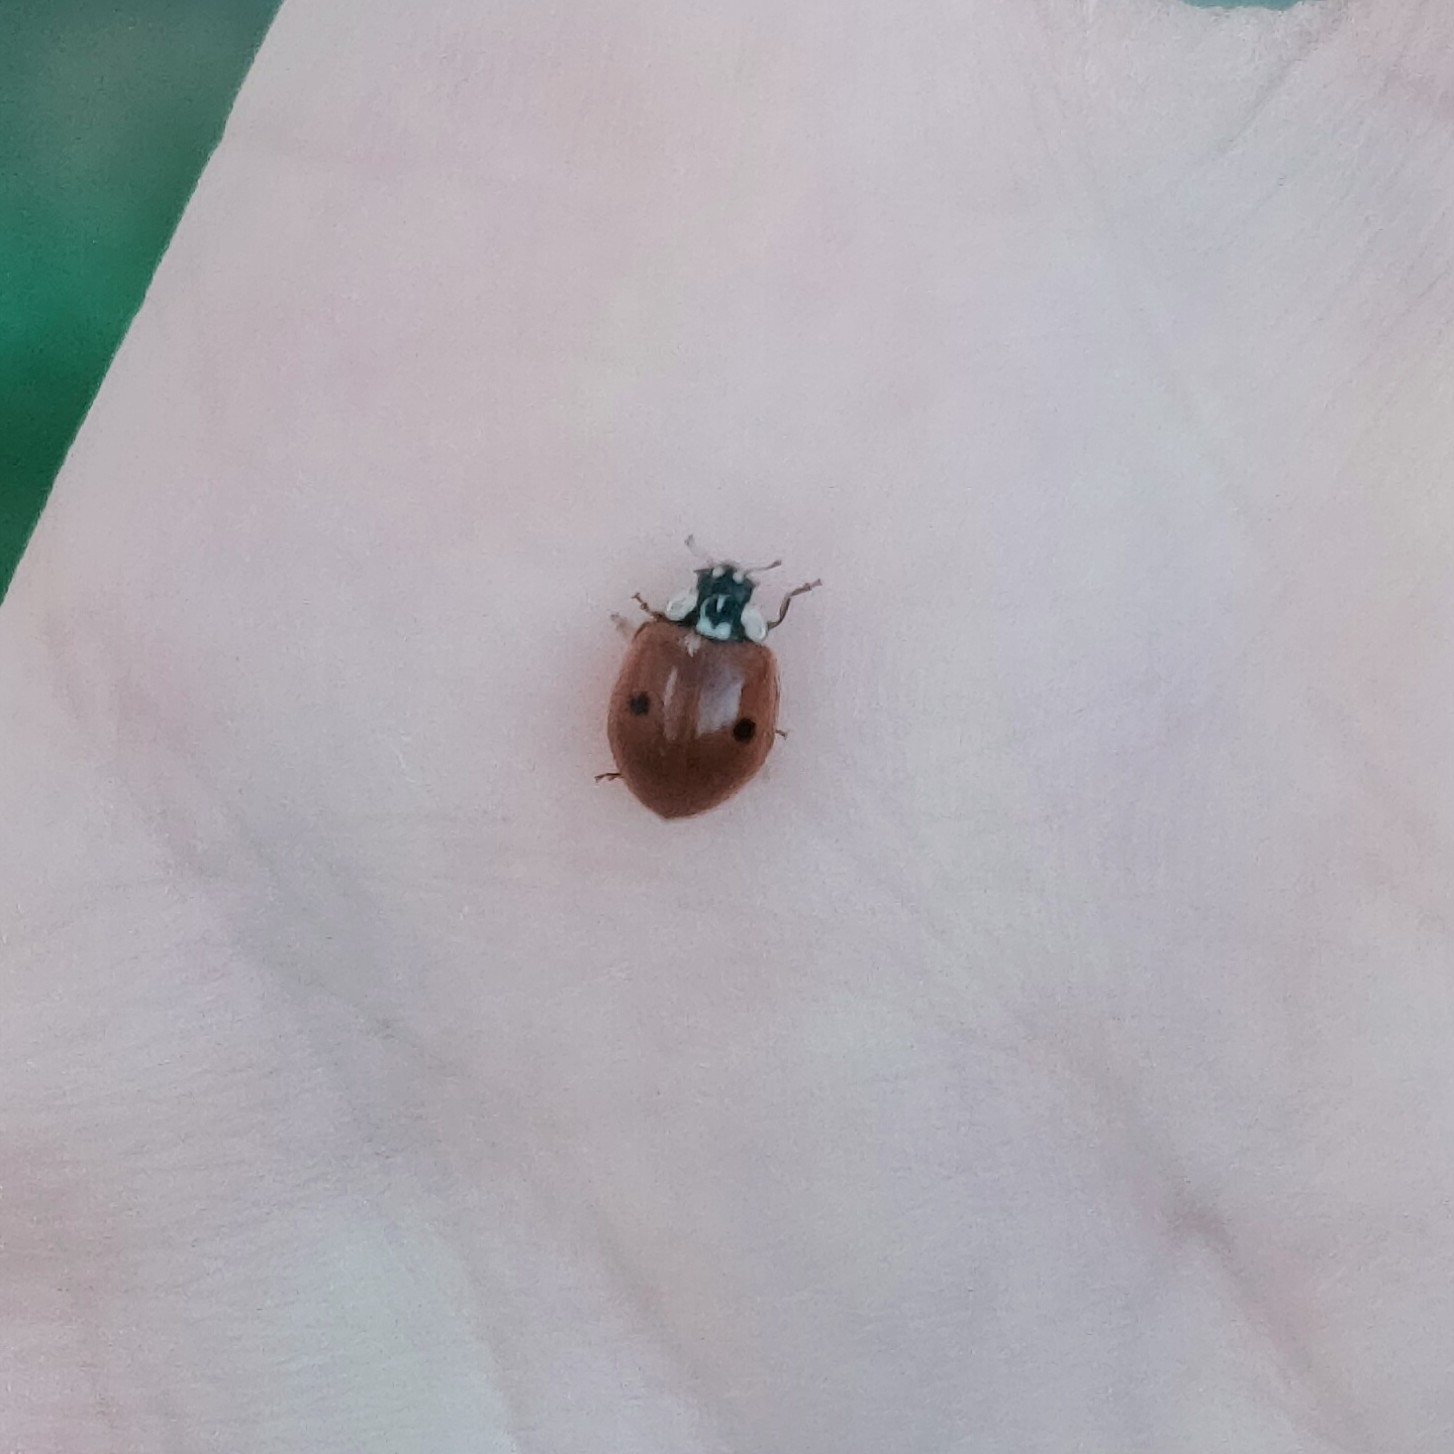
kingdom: Animalia
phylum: Arthropoda
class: Insecta
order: Coleoptera
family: Coccinellidae
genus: Adalia
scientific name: Adalia bipunctata
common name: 2-spot ladybird
